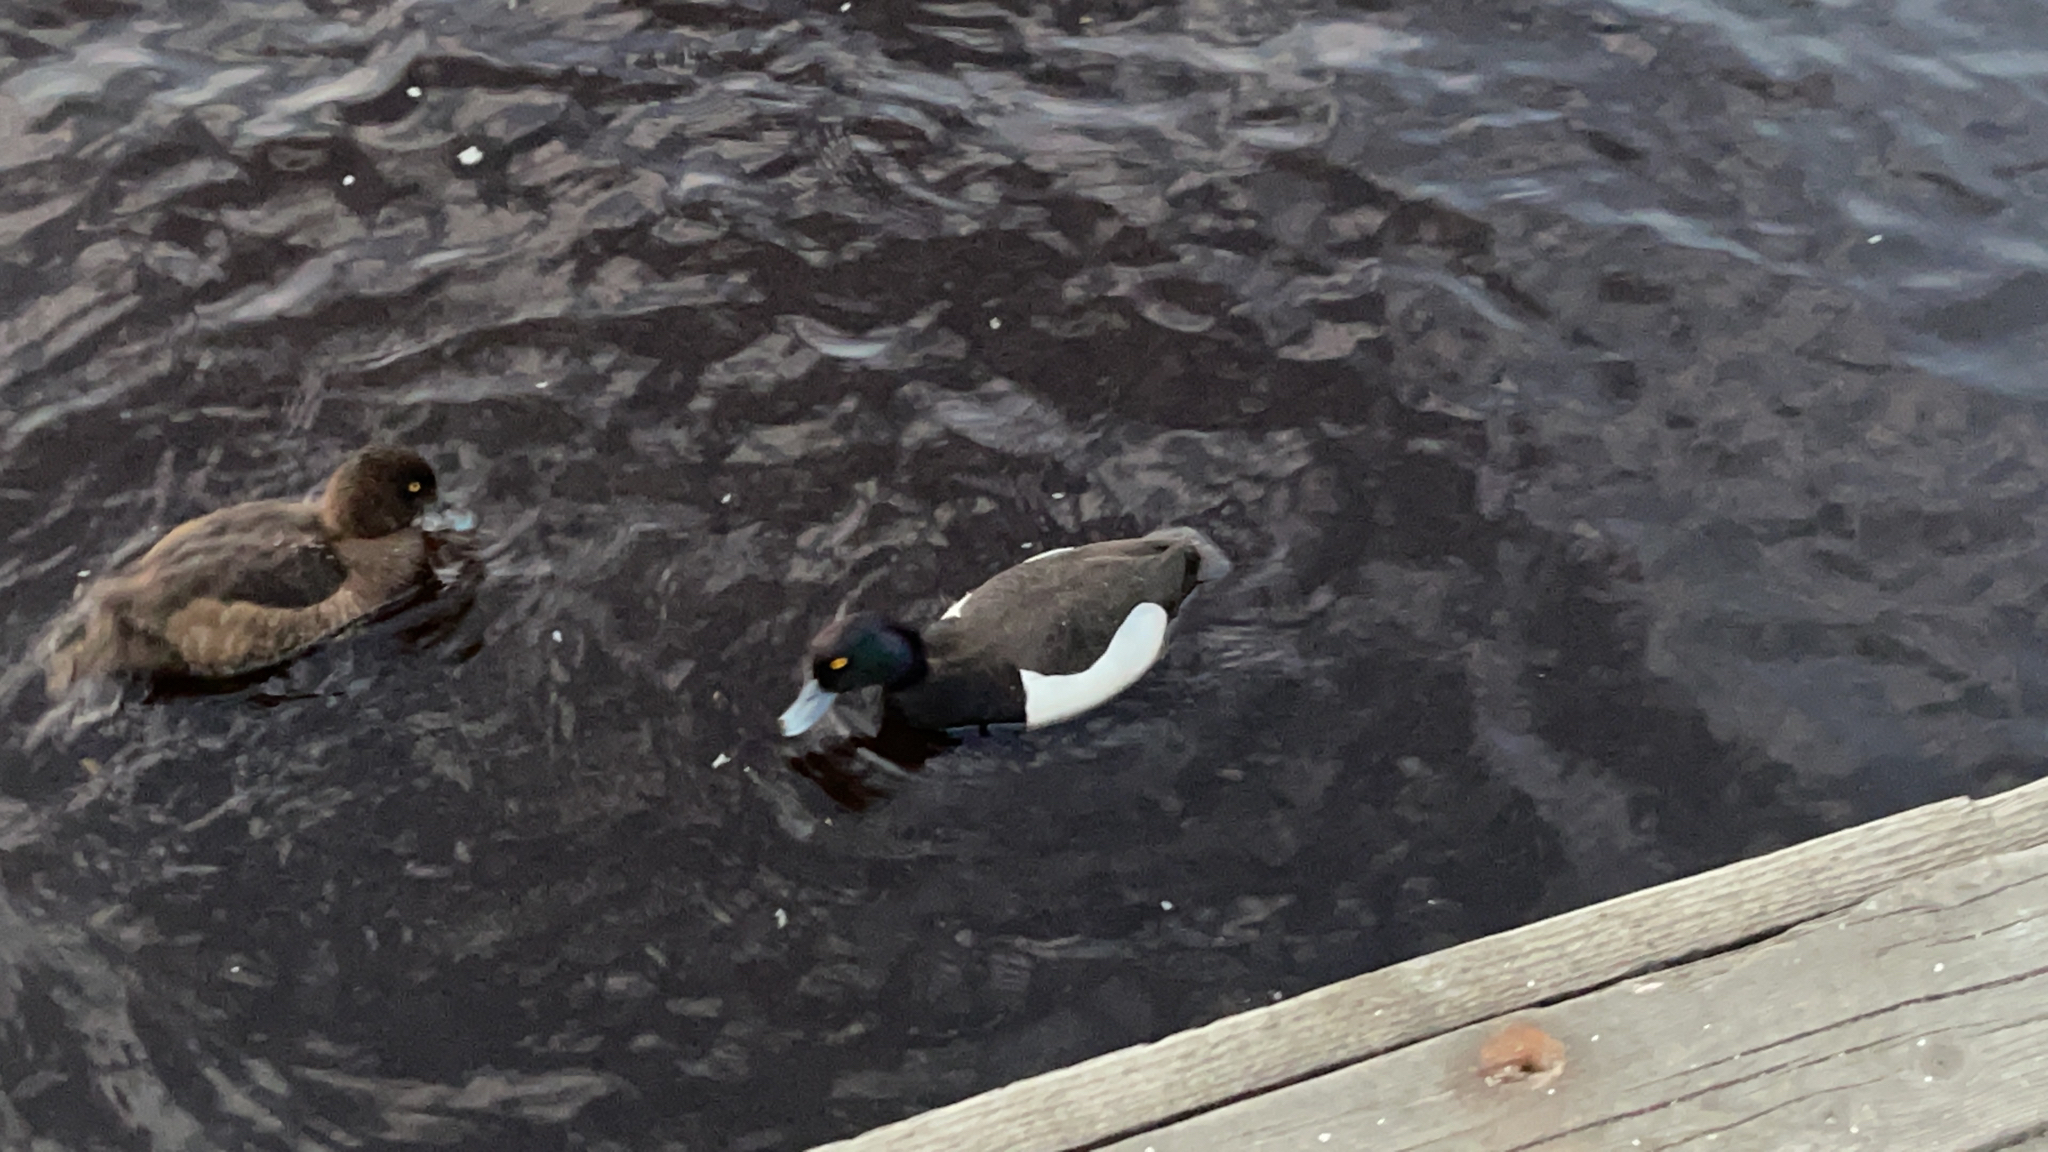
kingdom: Animalia
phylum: Chordata
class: Aves
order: Anseriformes
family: Anatidae
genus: Aythya
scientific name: Aythya fuligula
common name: Tufted duck
